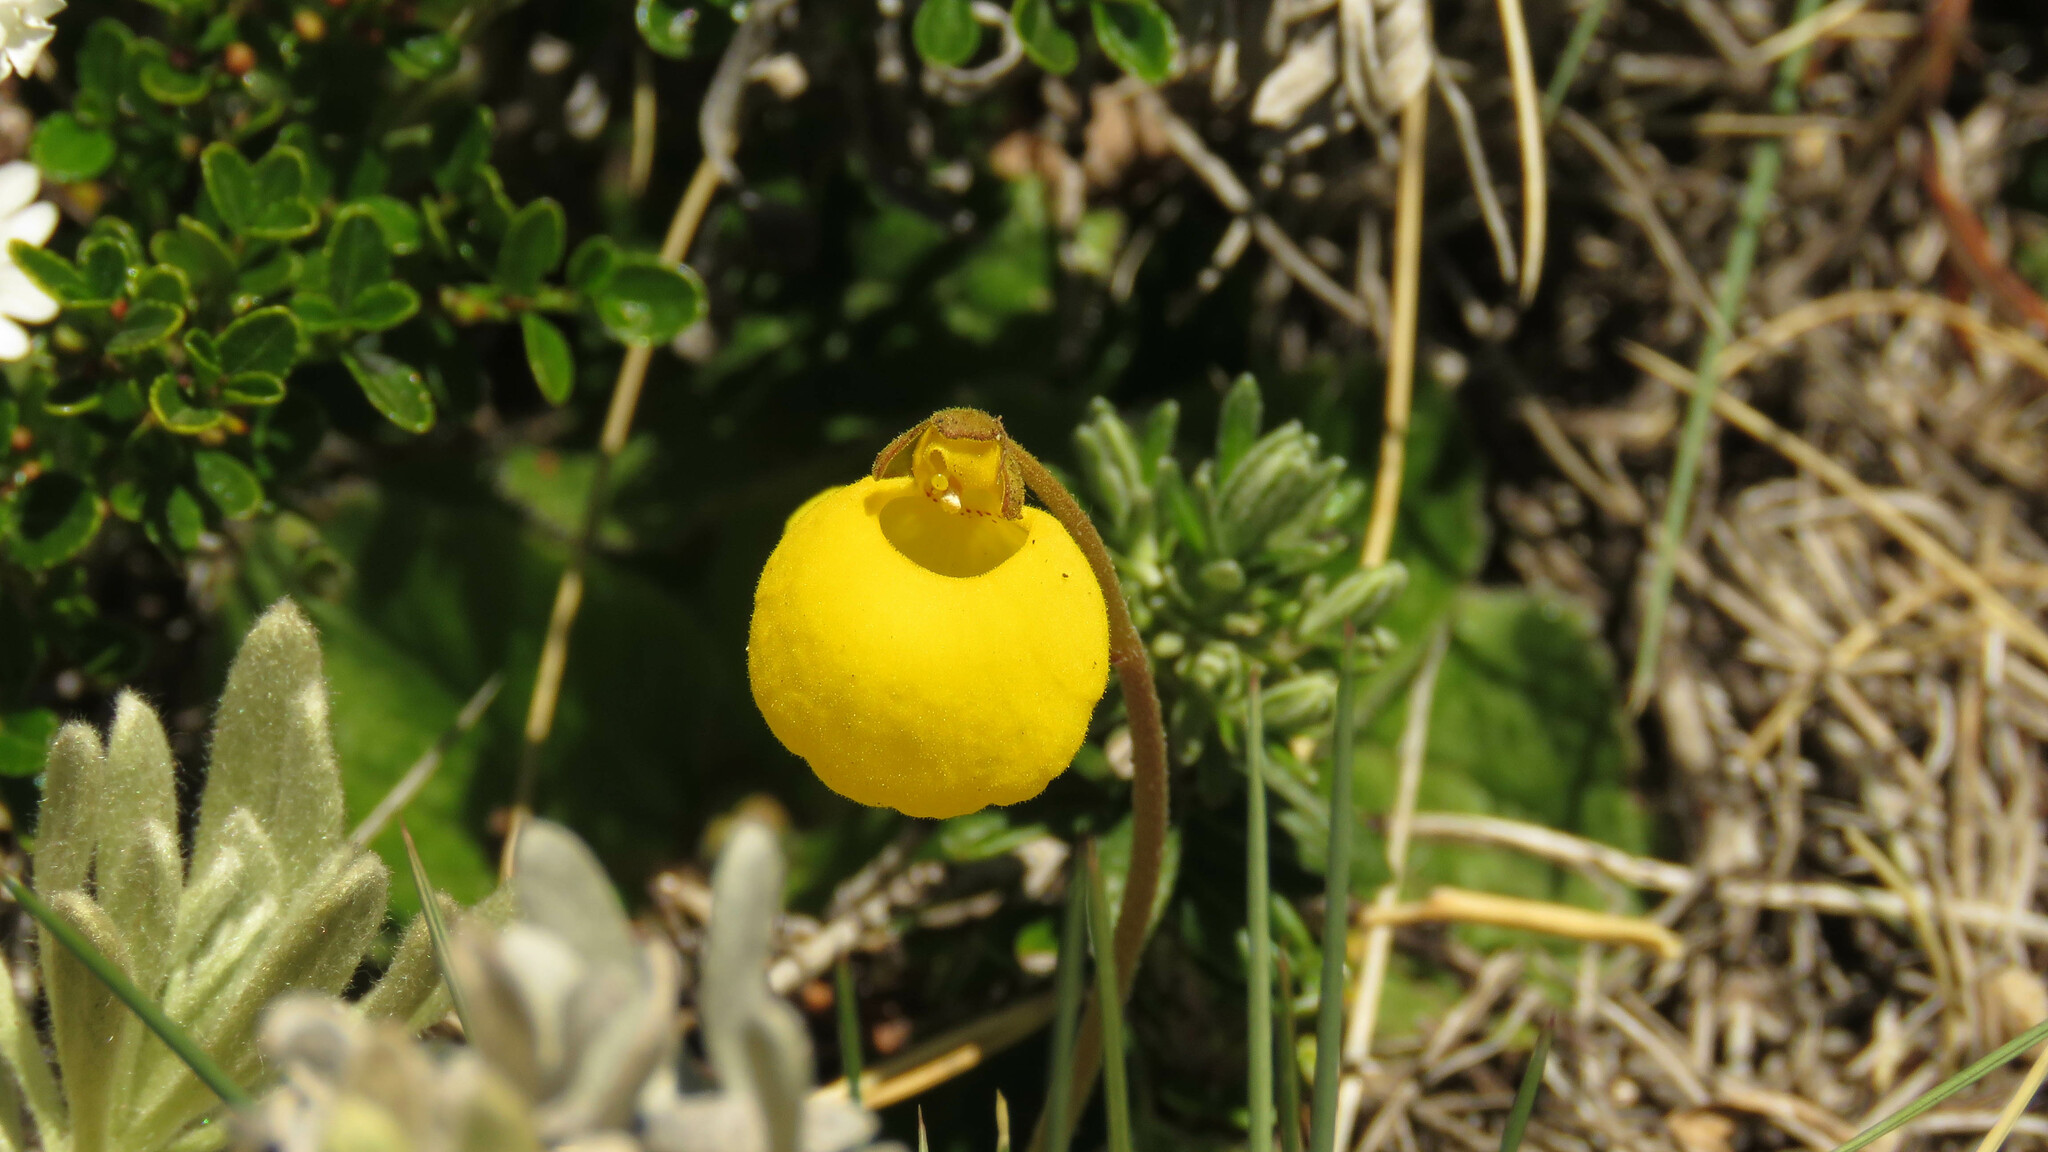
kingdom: Plantae
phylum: Tracheophyta
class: Magnoliopsida
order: Lamiales
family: Calceolariaceae
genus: Calceolaria
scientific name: Calceolaria filicaulis
